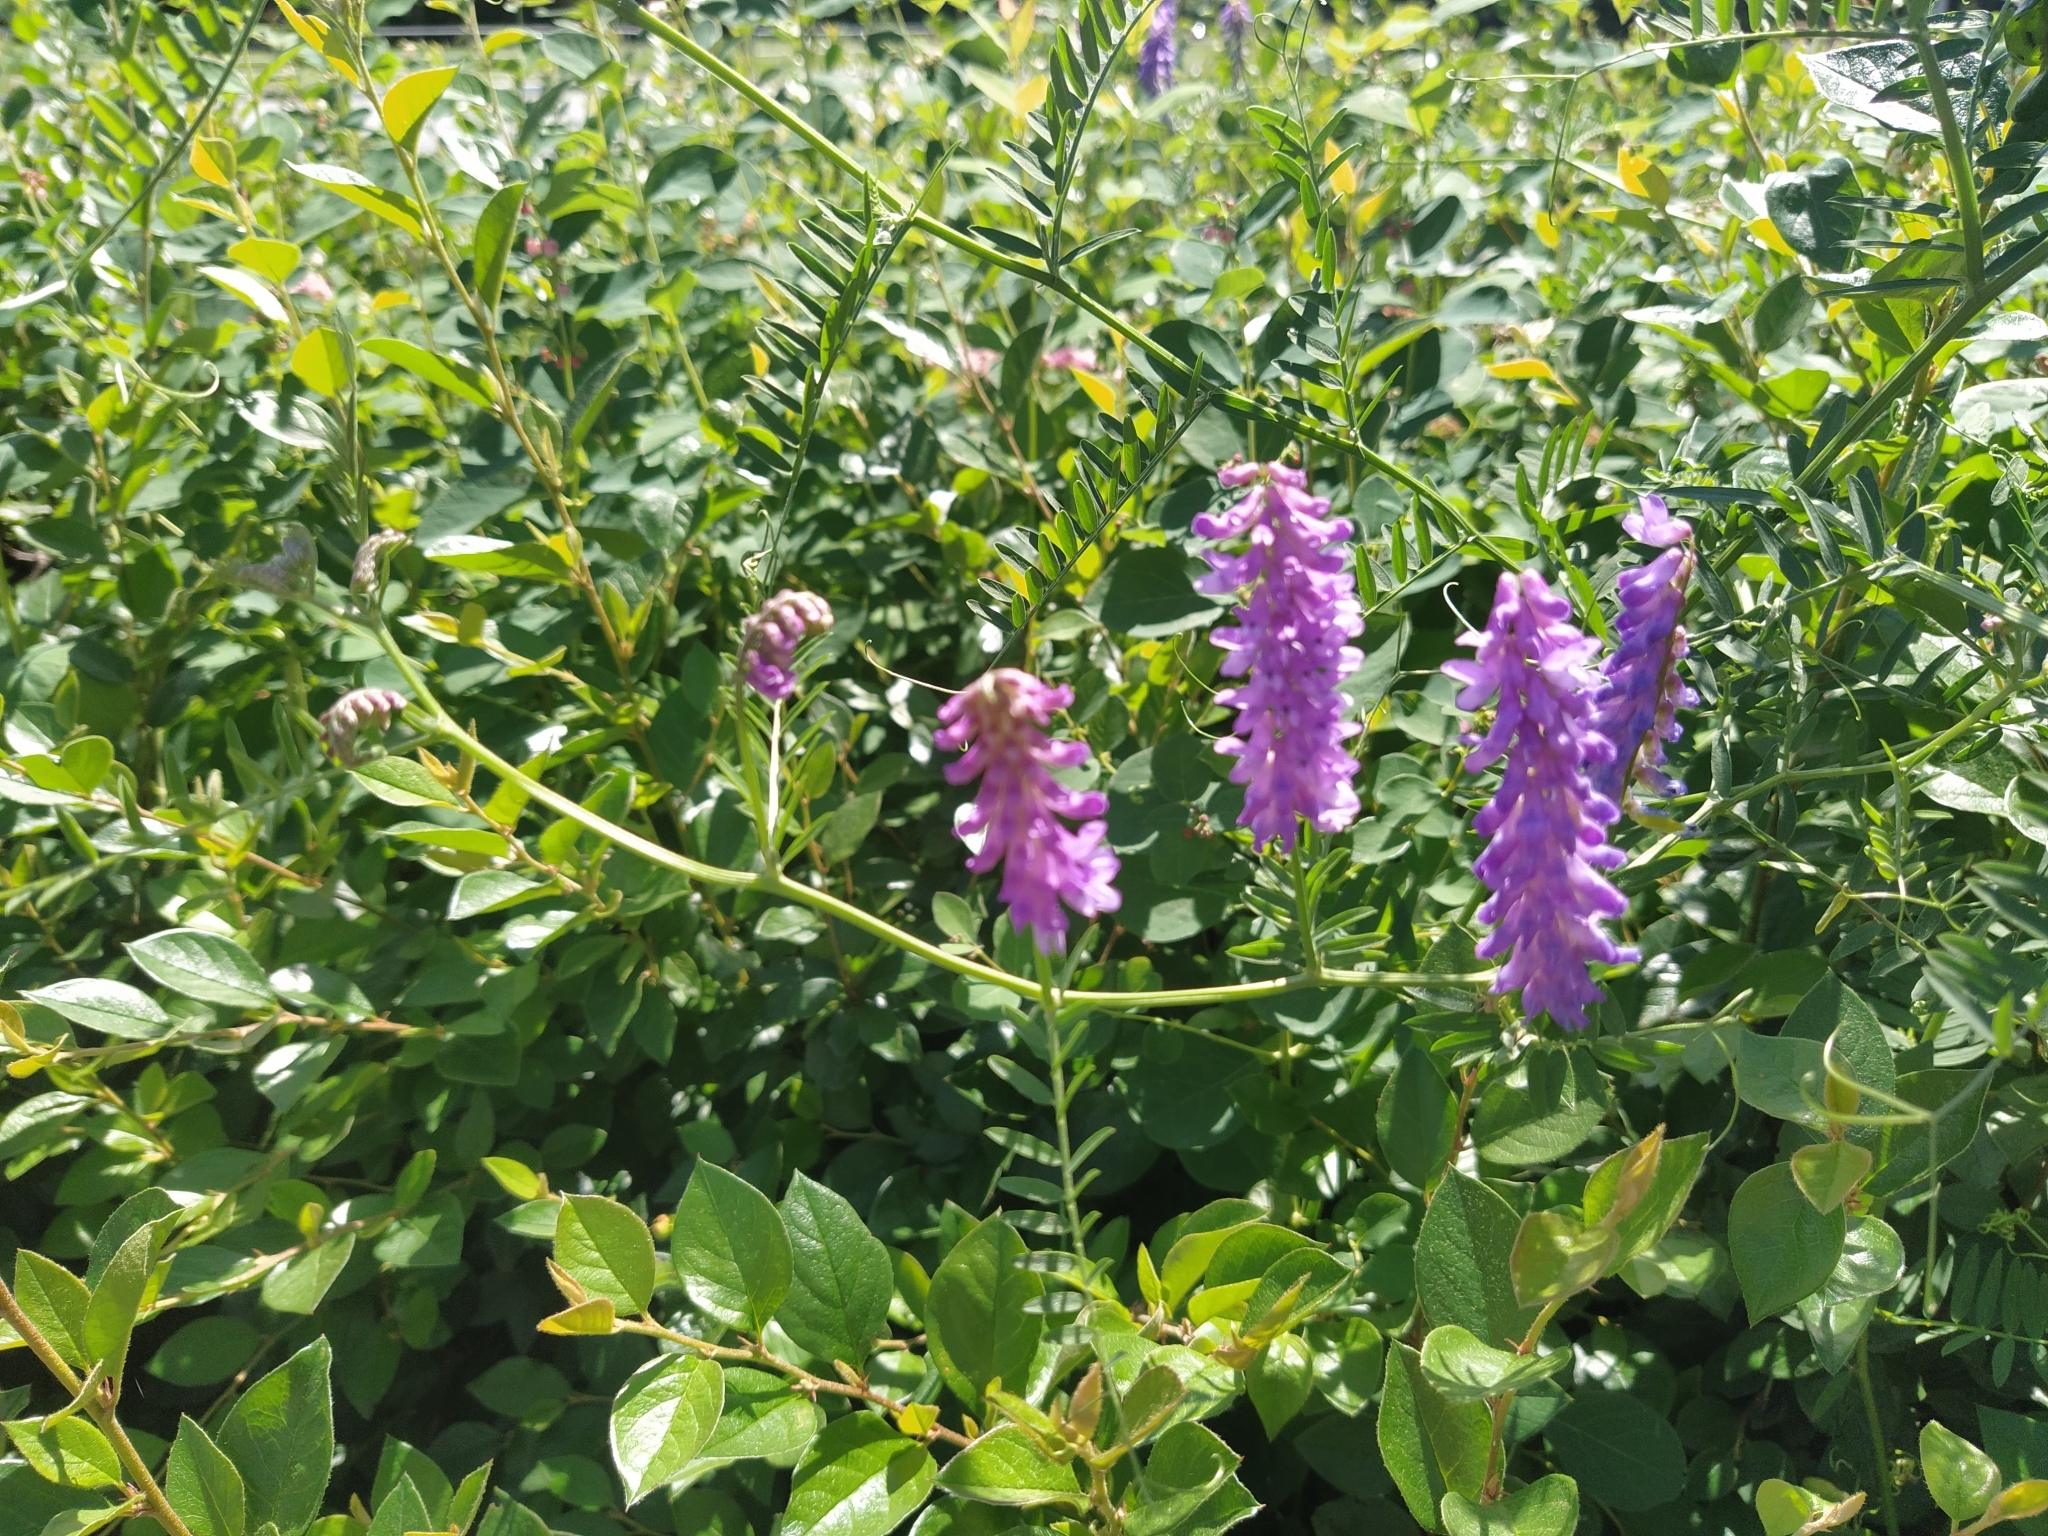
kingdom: Plantae
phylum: Tracheophyta
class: Magnoliopsida
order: Fabales
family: Fabaceae
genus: Vicia
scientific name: Vicia cracca
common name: Bird vetch
